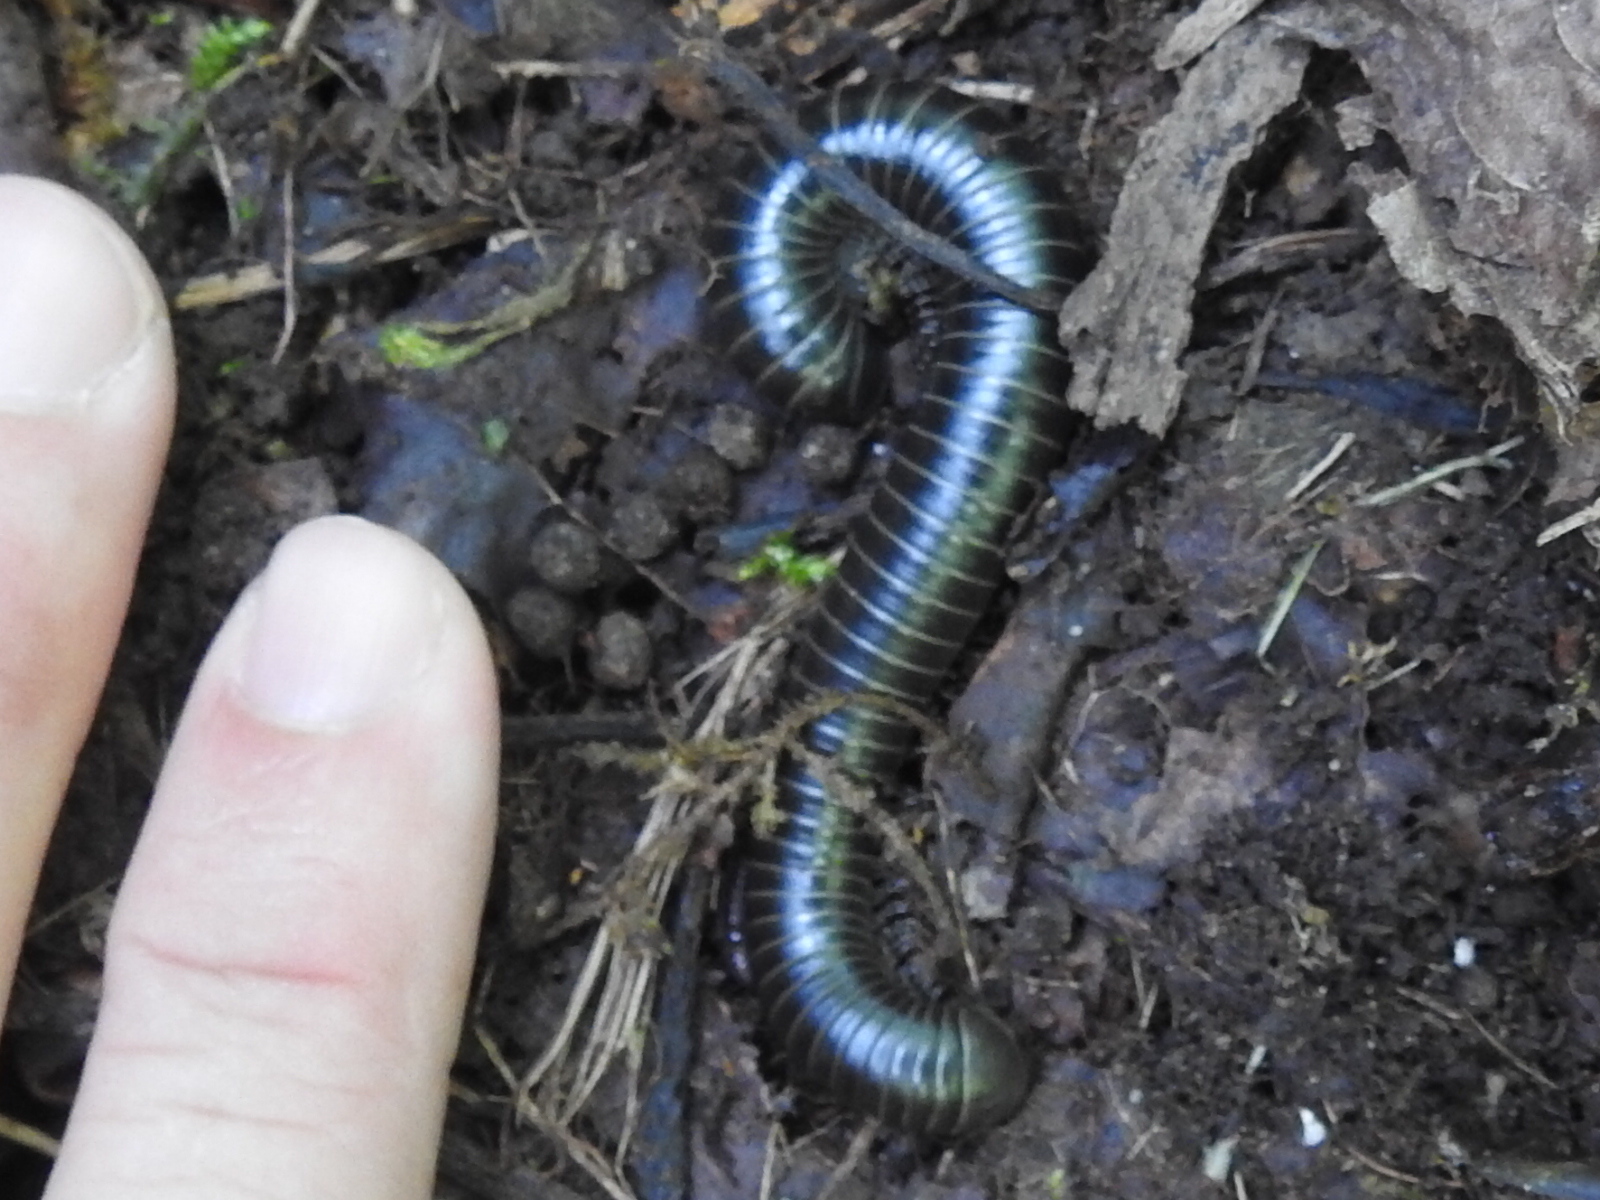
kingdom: Animalia
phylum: Arthropoda
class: Diplopoda
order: Spirobolida
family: Spirobolidae
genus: Tylobolus
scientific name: Tylobolus uncigerus
